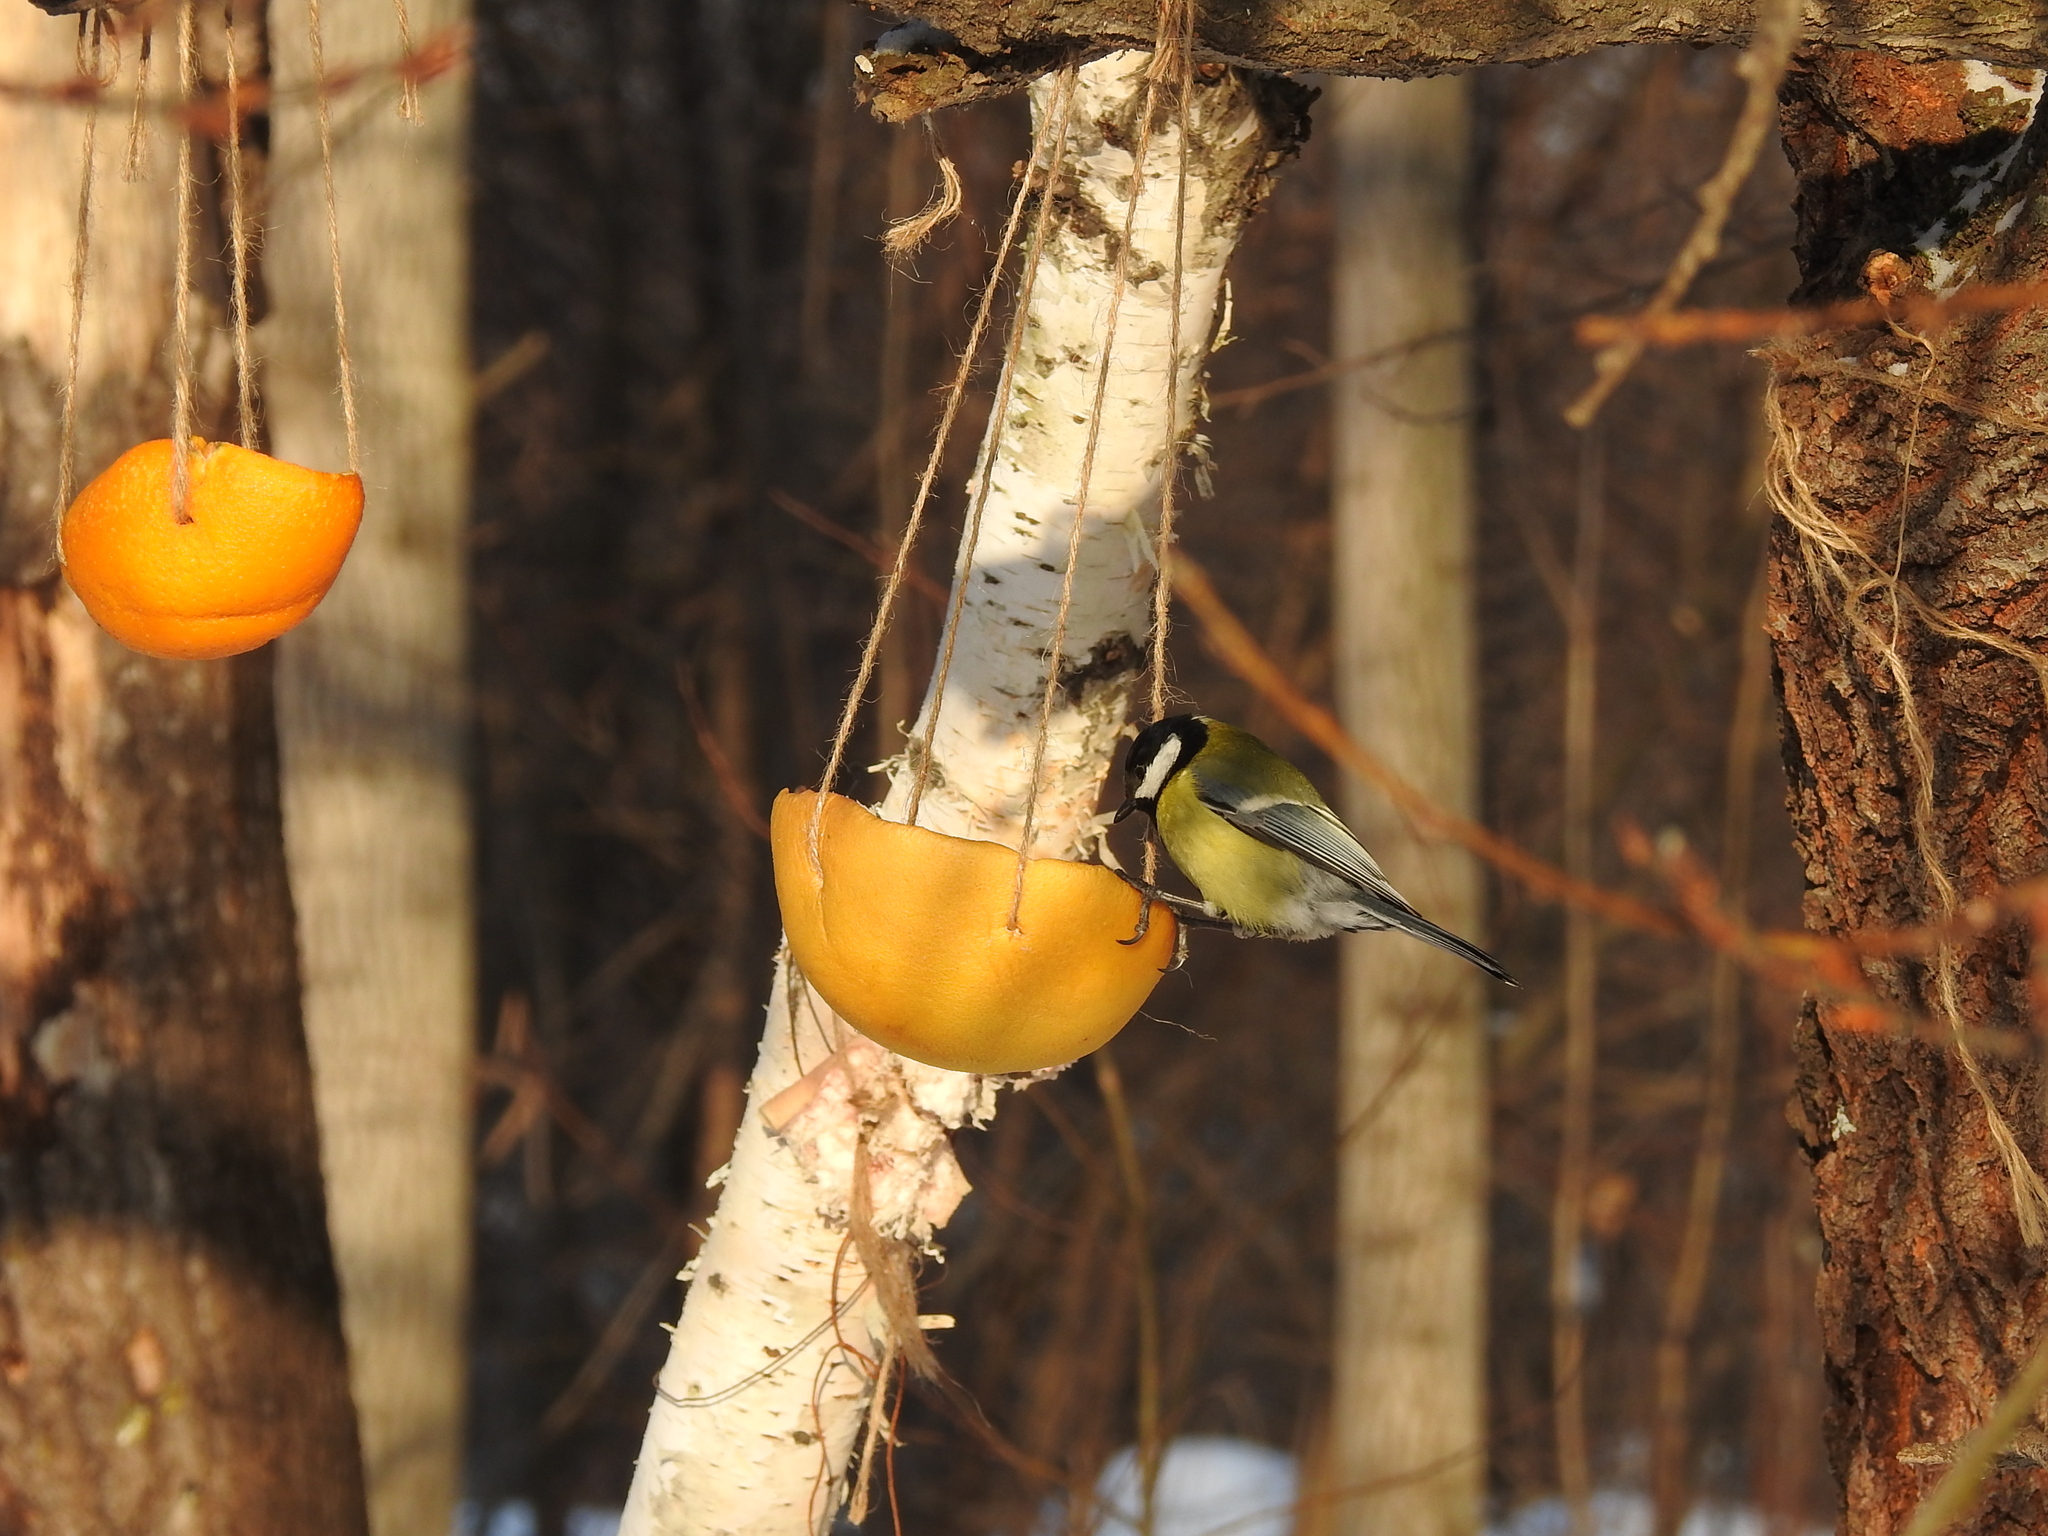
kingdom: Animalia
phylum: Chordata
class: Aves
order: Passeriformes
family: Paridae
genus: Parus
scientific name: Parus major
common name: Great tit
